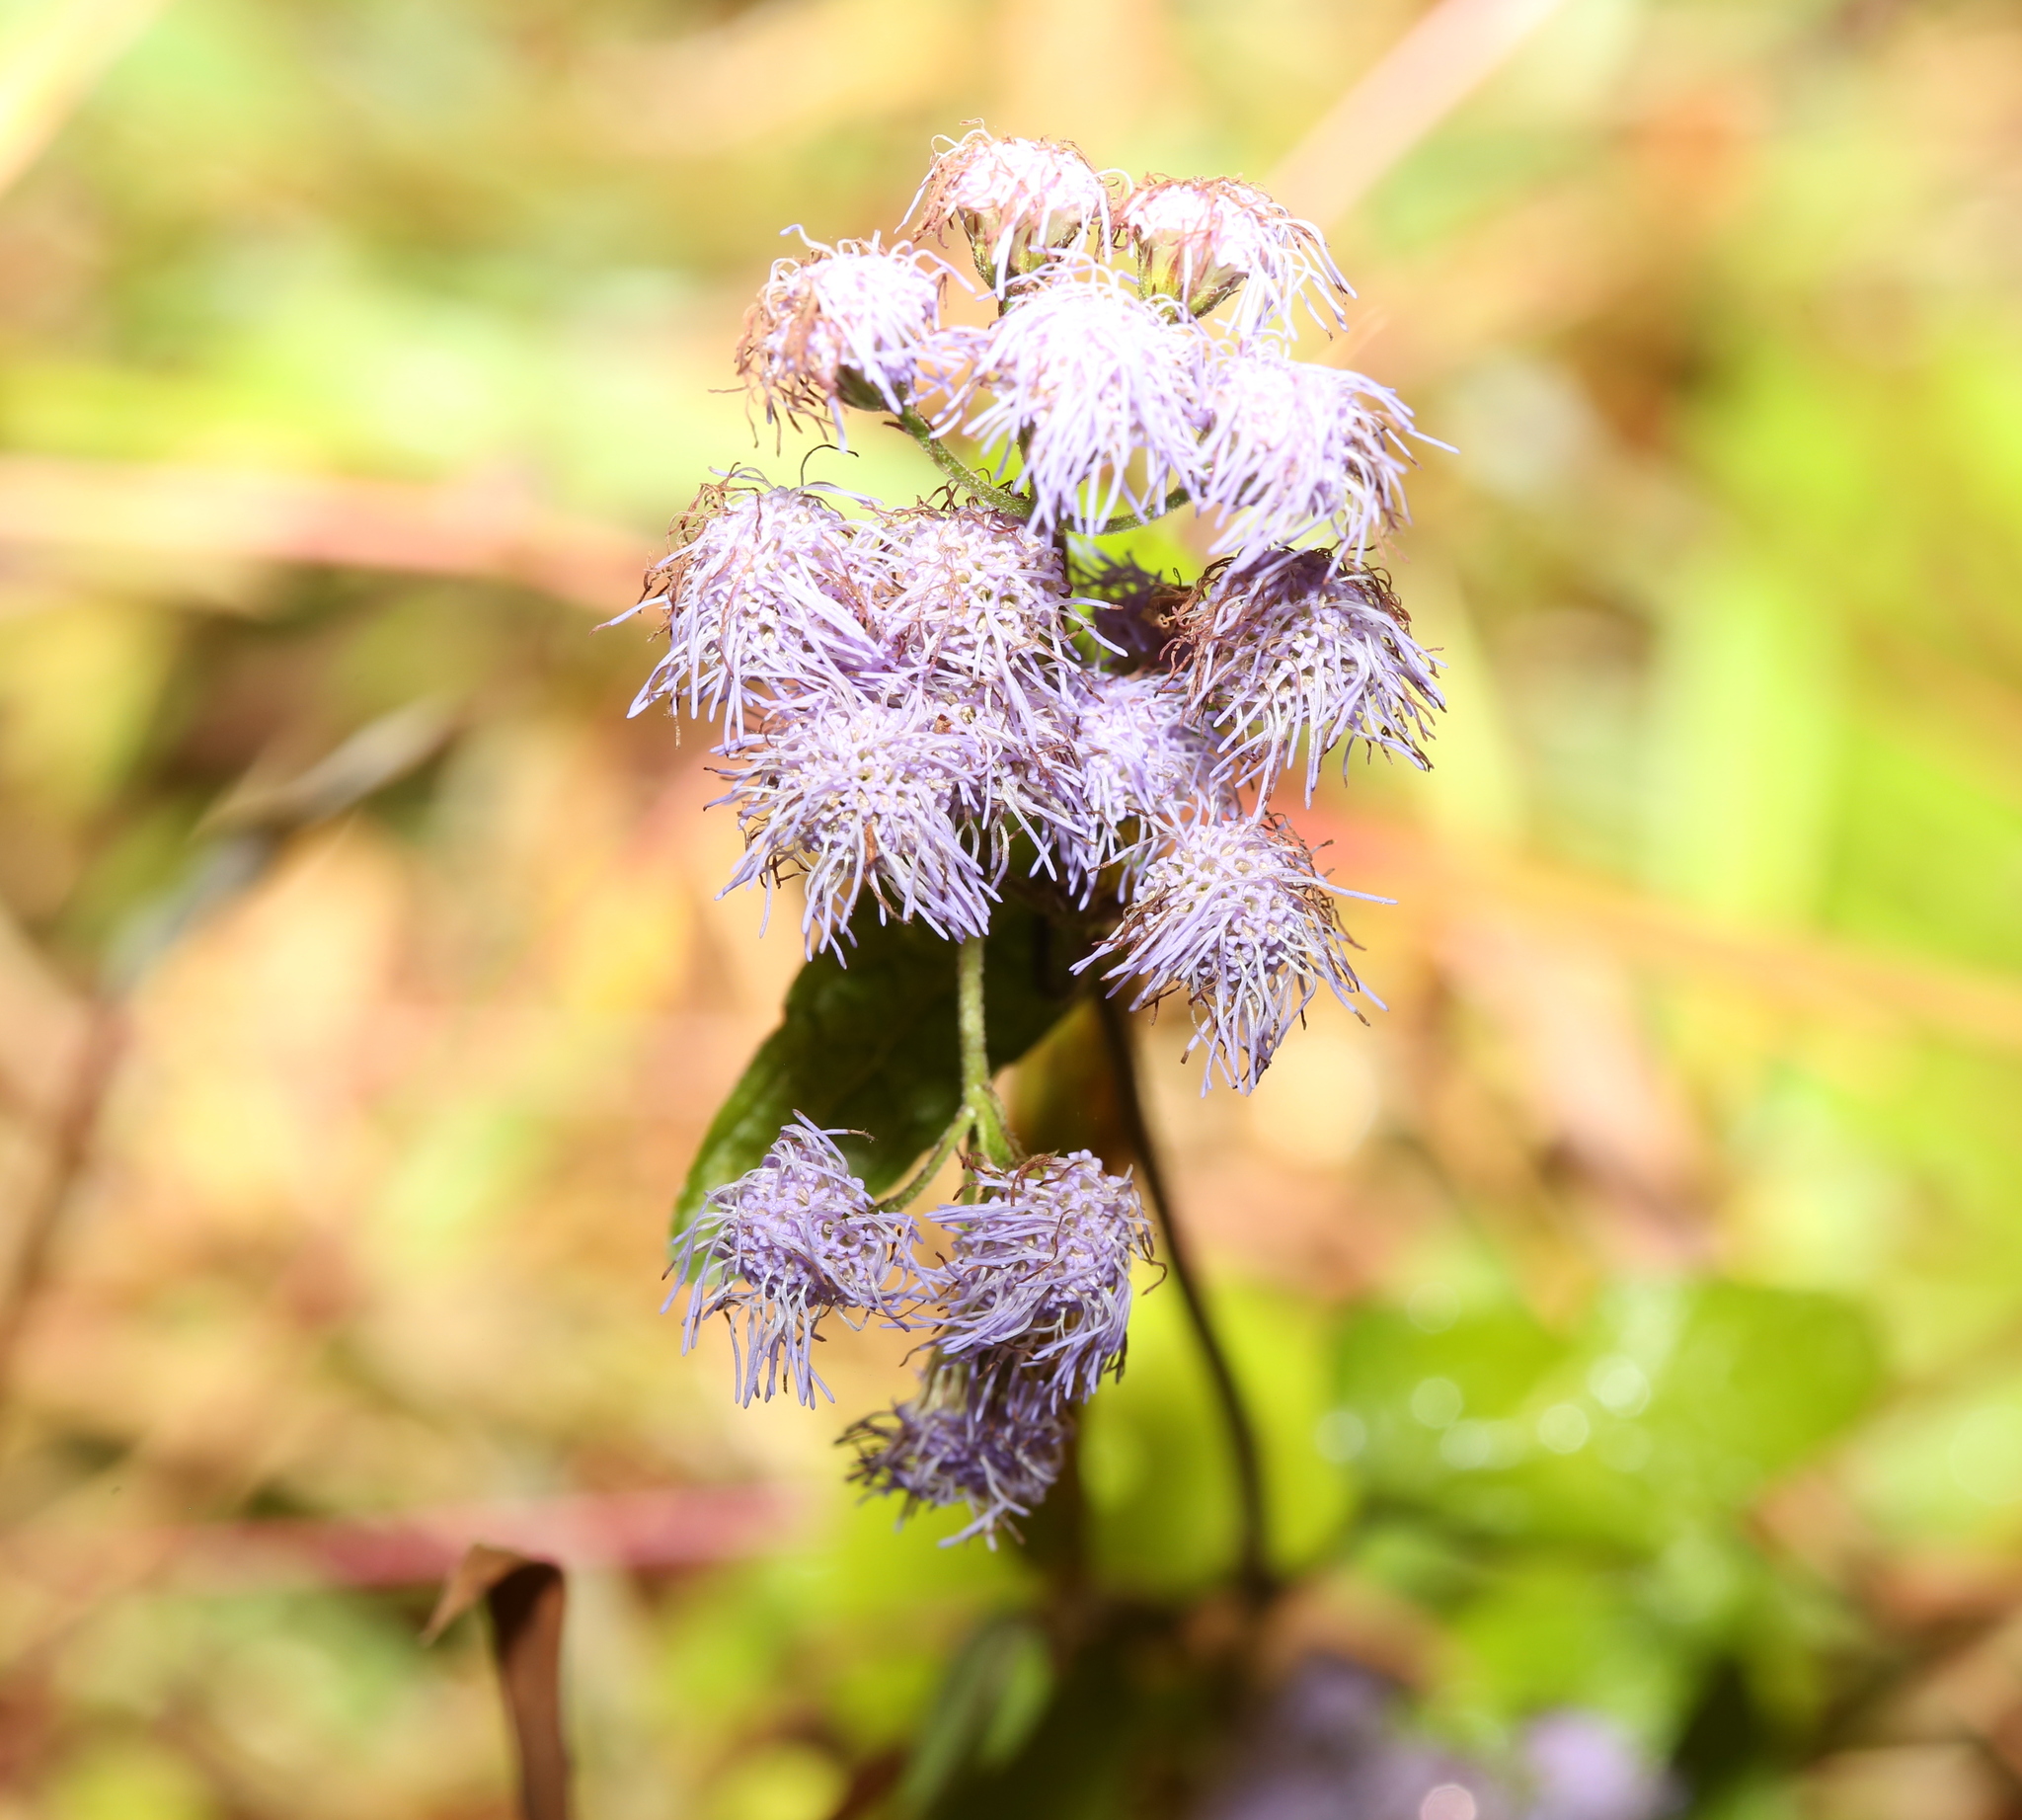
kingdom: Plantae
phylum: Tracheophyta
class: Magnoliopsida
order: Asterales
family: Asteraceae
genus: Conoclinium
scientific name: Conoclinium coelestinum
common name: Blue mistflower
